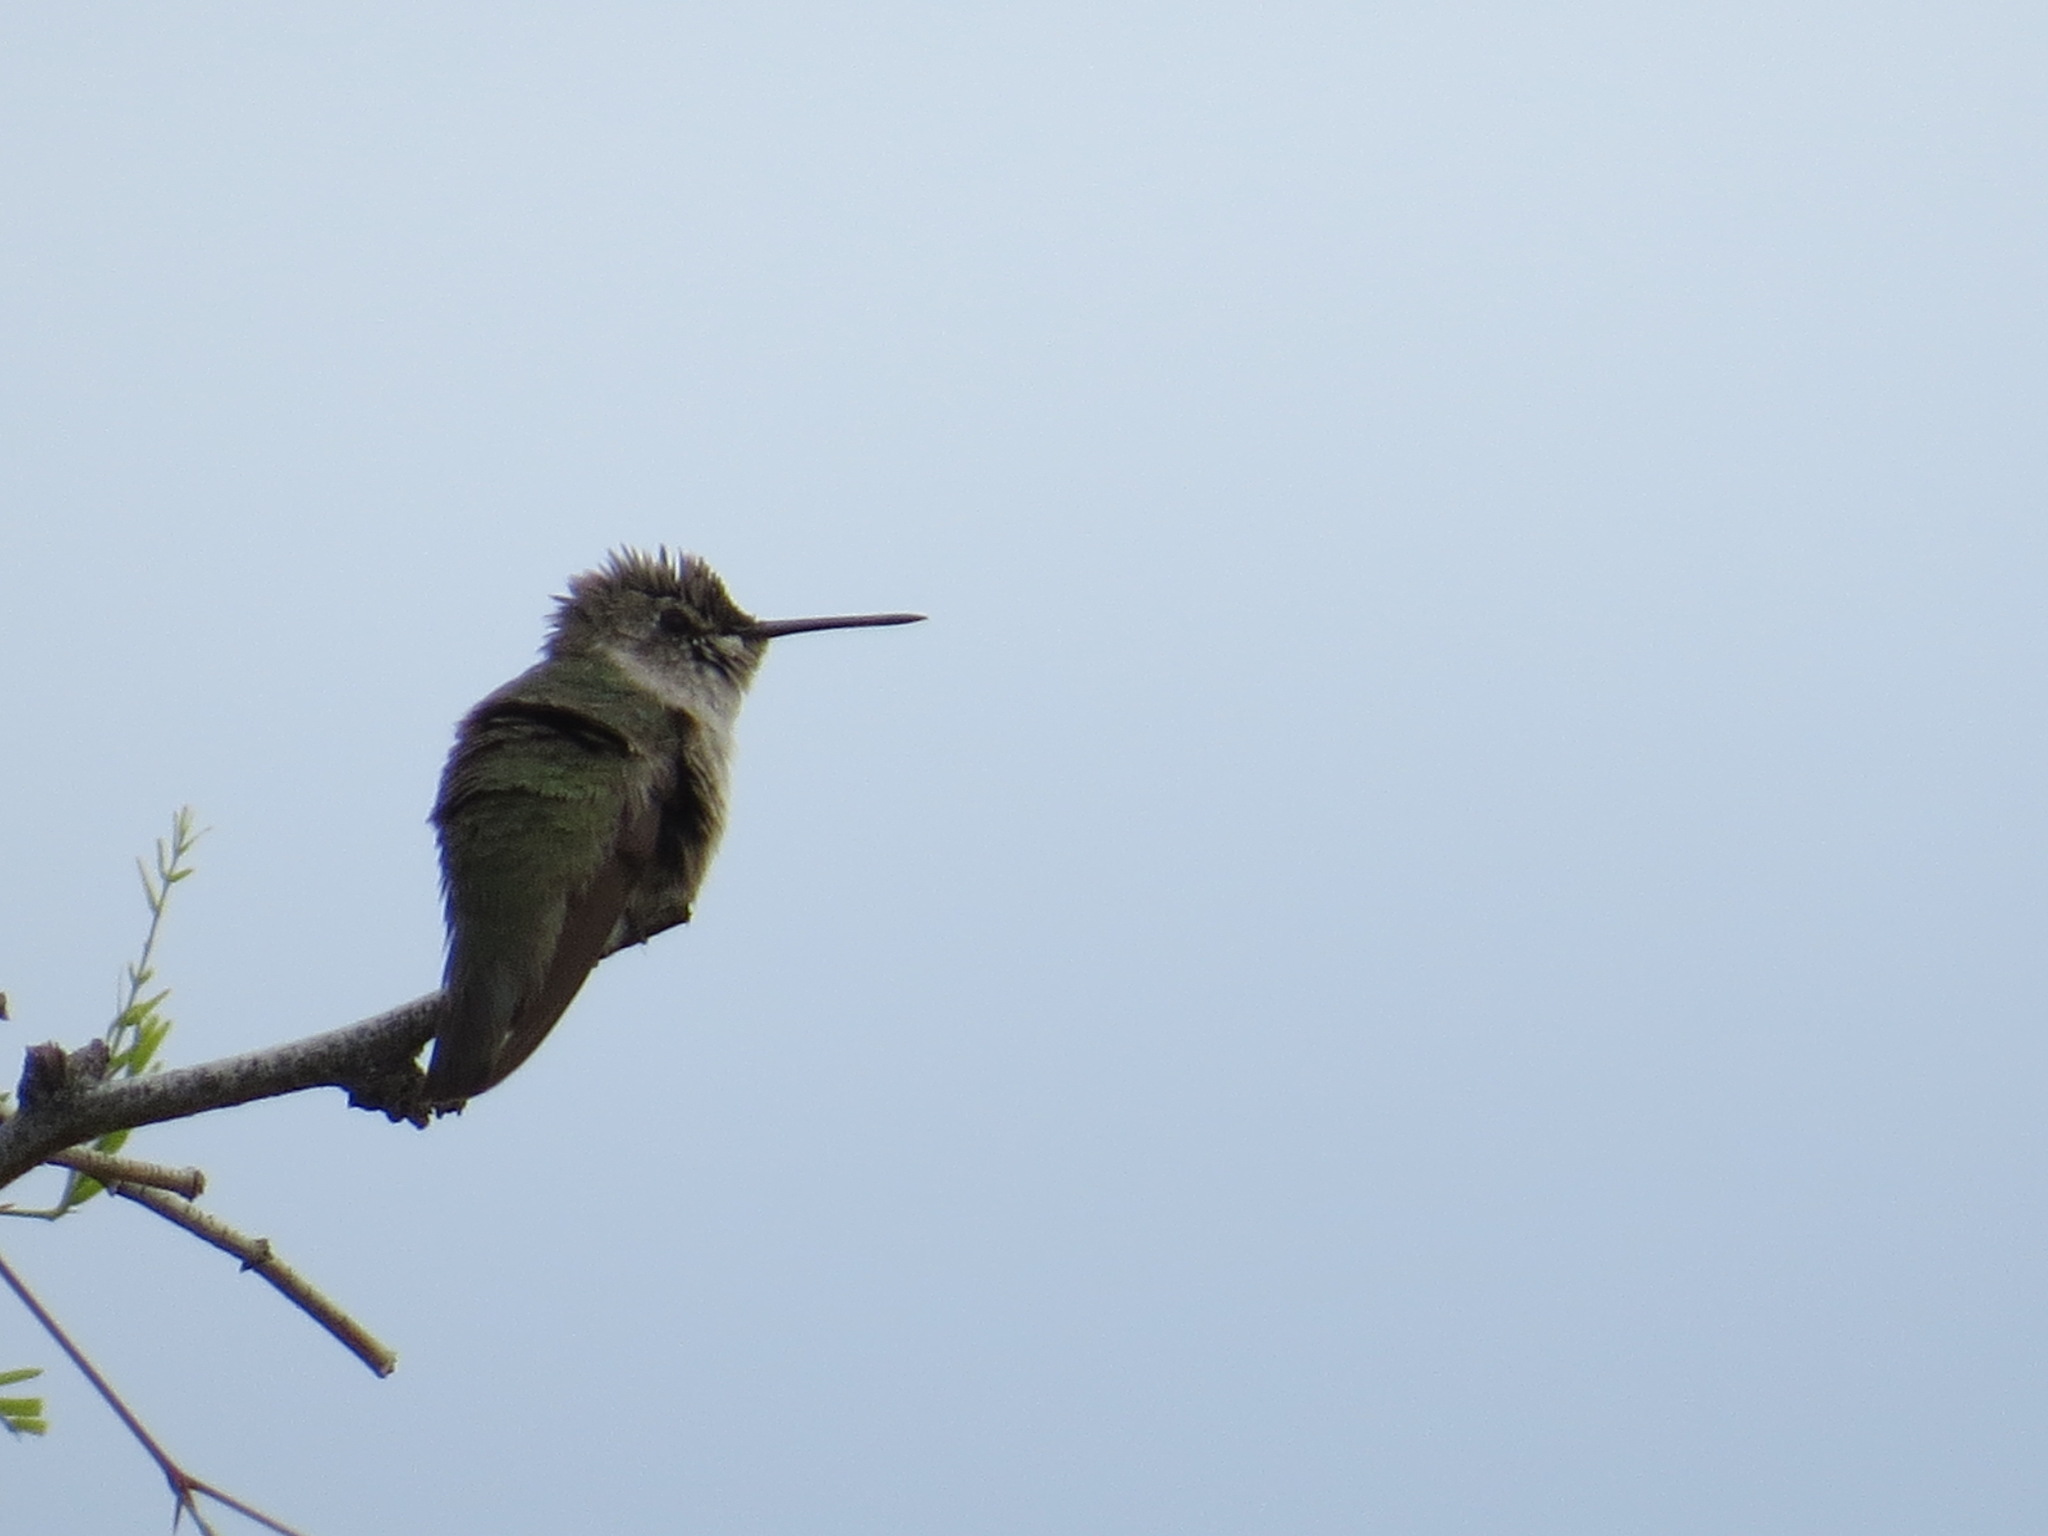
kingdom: Animalia
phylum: Chordata
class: Aves
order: Apodiformes
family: Trochilidae
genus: Calypte
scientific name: Calypte costae
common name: Costa's hummingbird
